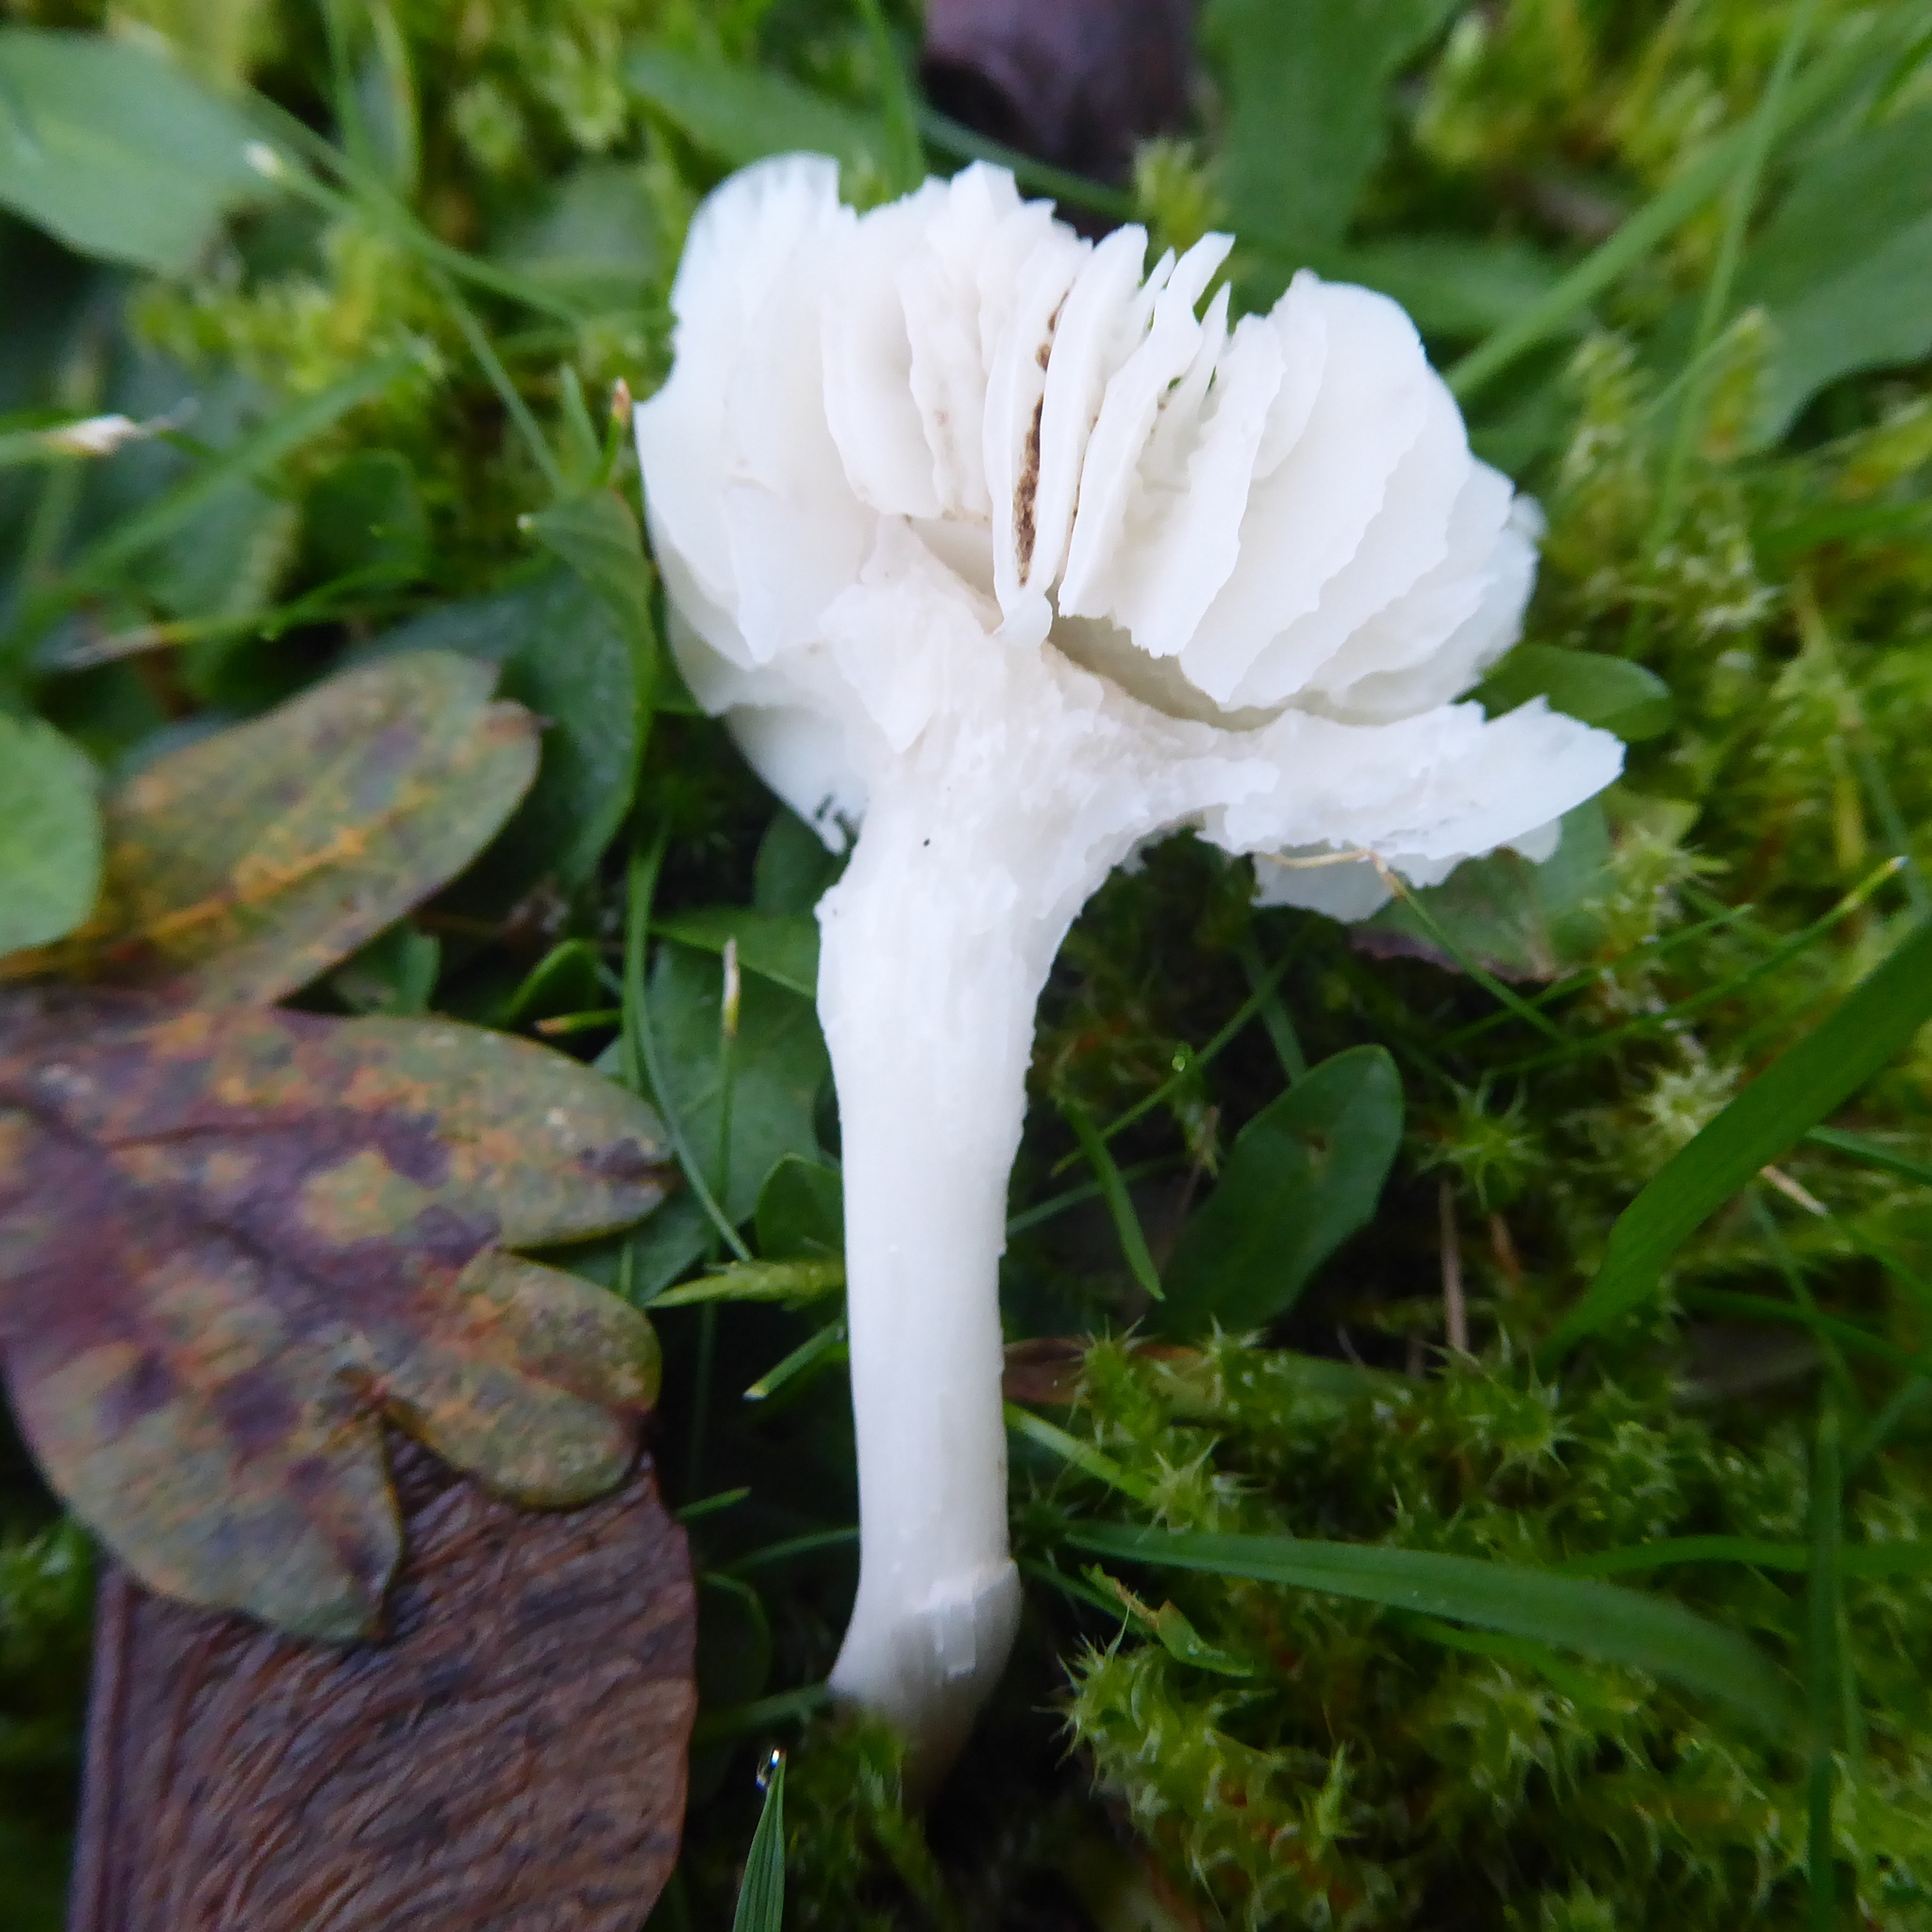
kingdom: Fungi
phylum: Basidiomycota
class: Agaricomycetes
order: Agaricales
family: Hygrophoraceae
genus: Cuphophyllus
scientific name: Cuphophyllus virgineus
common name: Snowy waxcap
